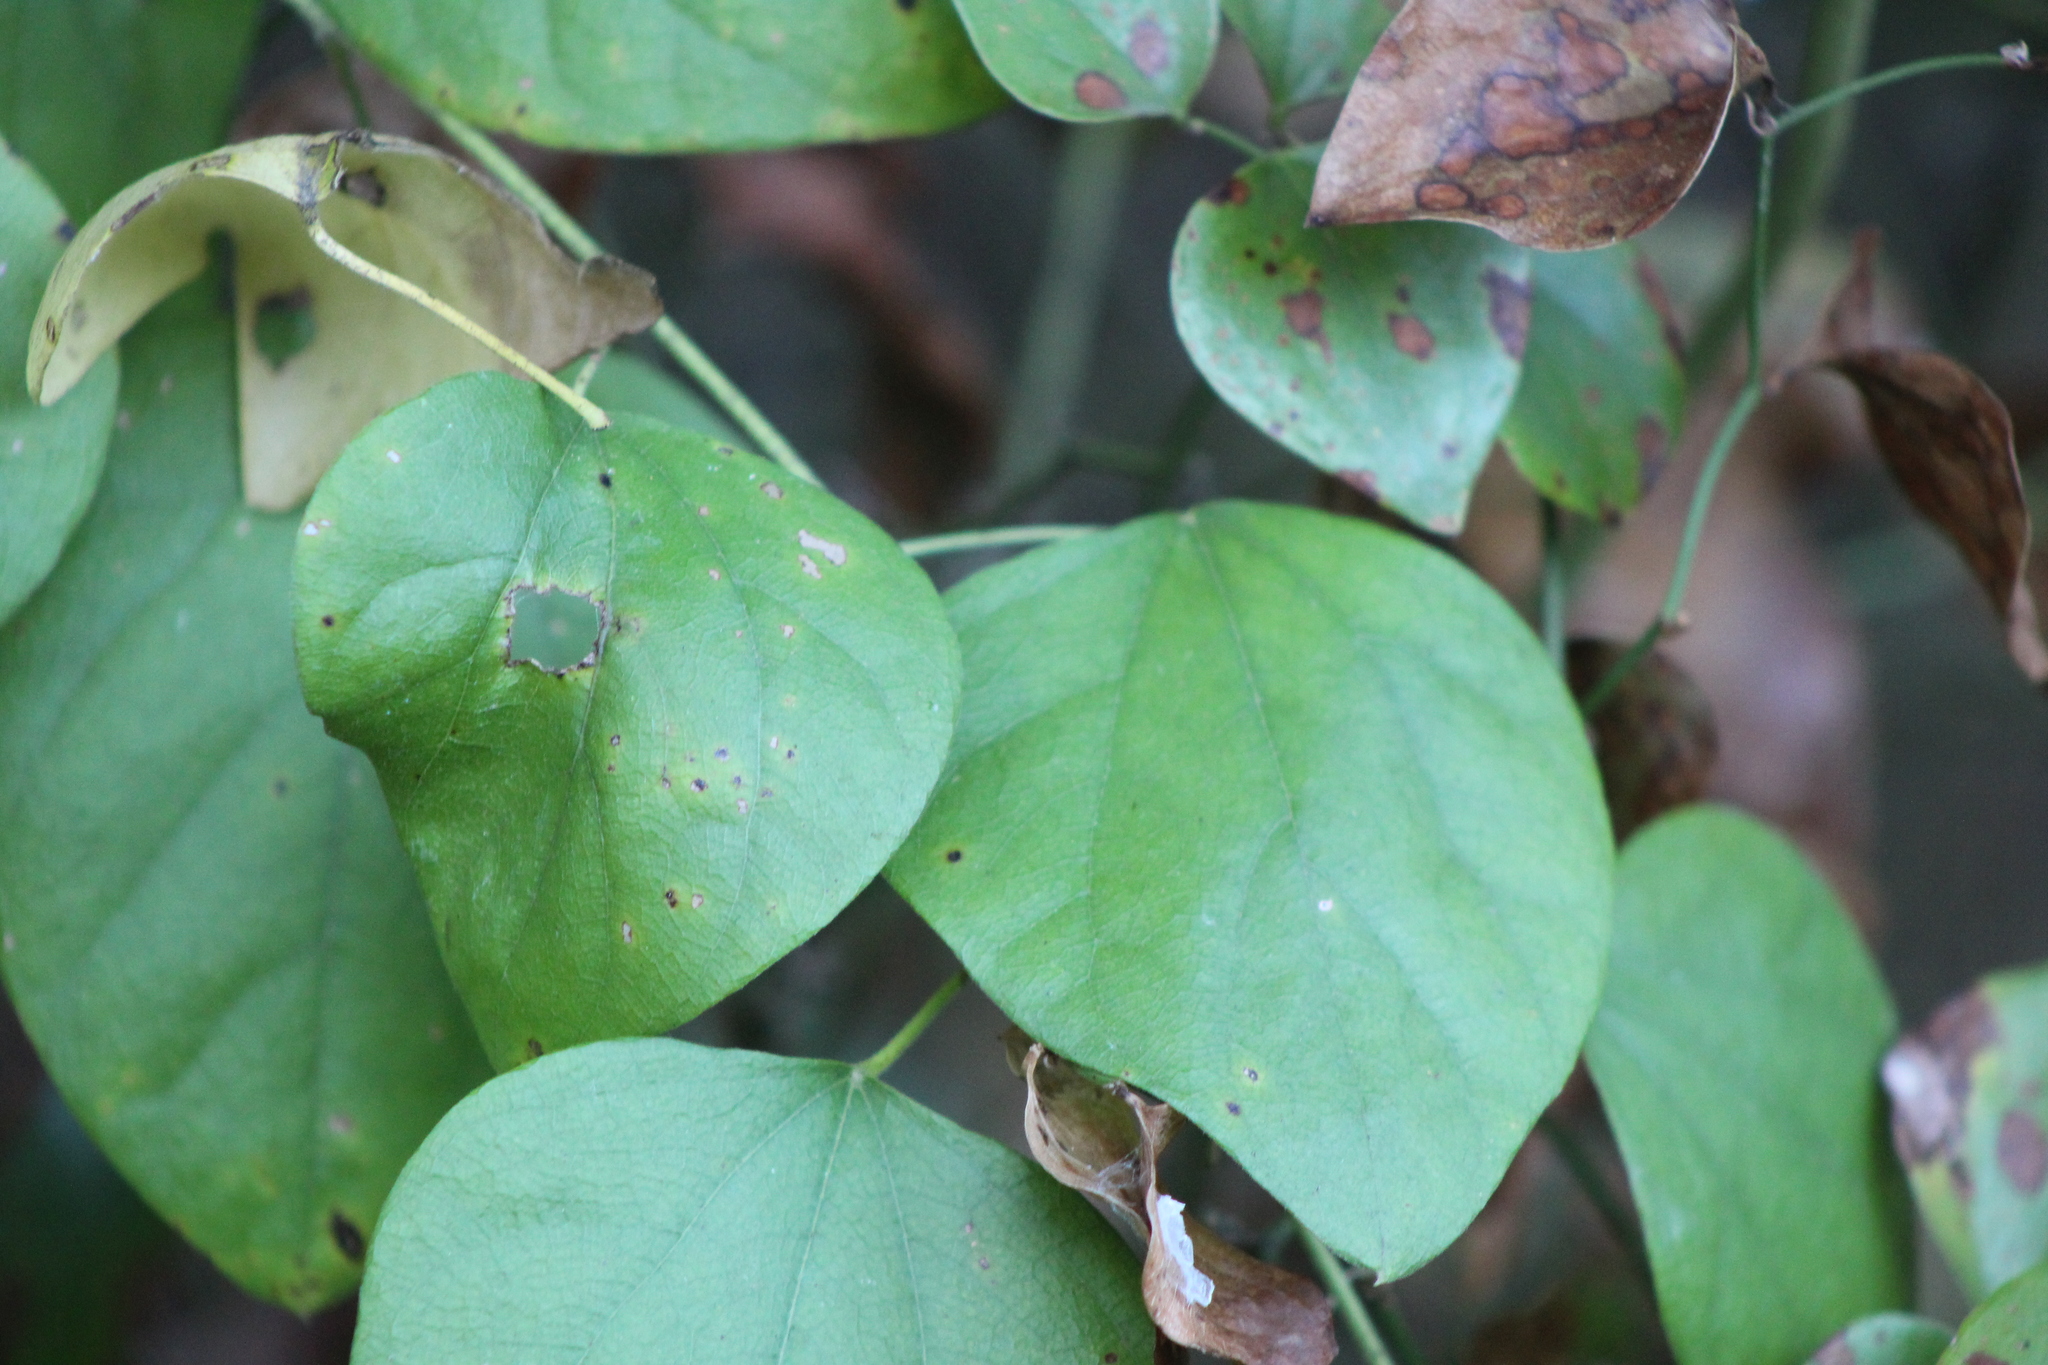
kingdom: Plantae
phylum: Tracheophyta
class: Magnoliopsida
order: Ranunculales
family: Menispermaceae
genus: Cocculus
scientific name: Cocculus carolinus
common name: Carolina moonseed
